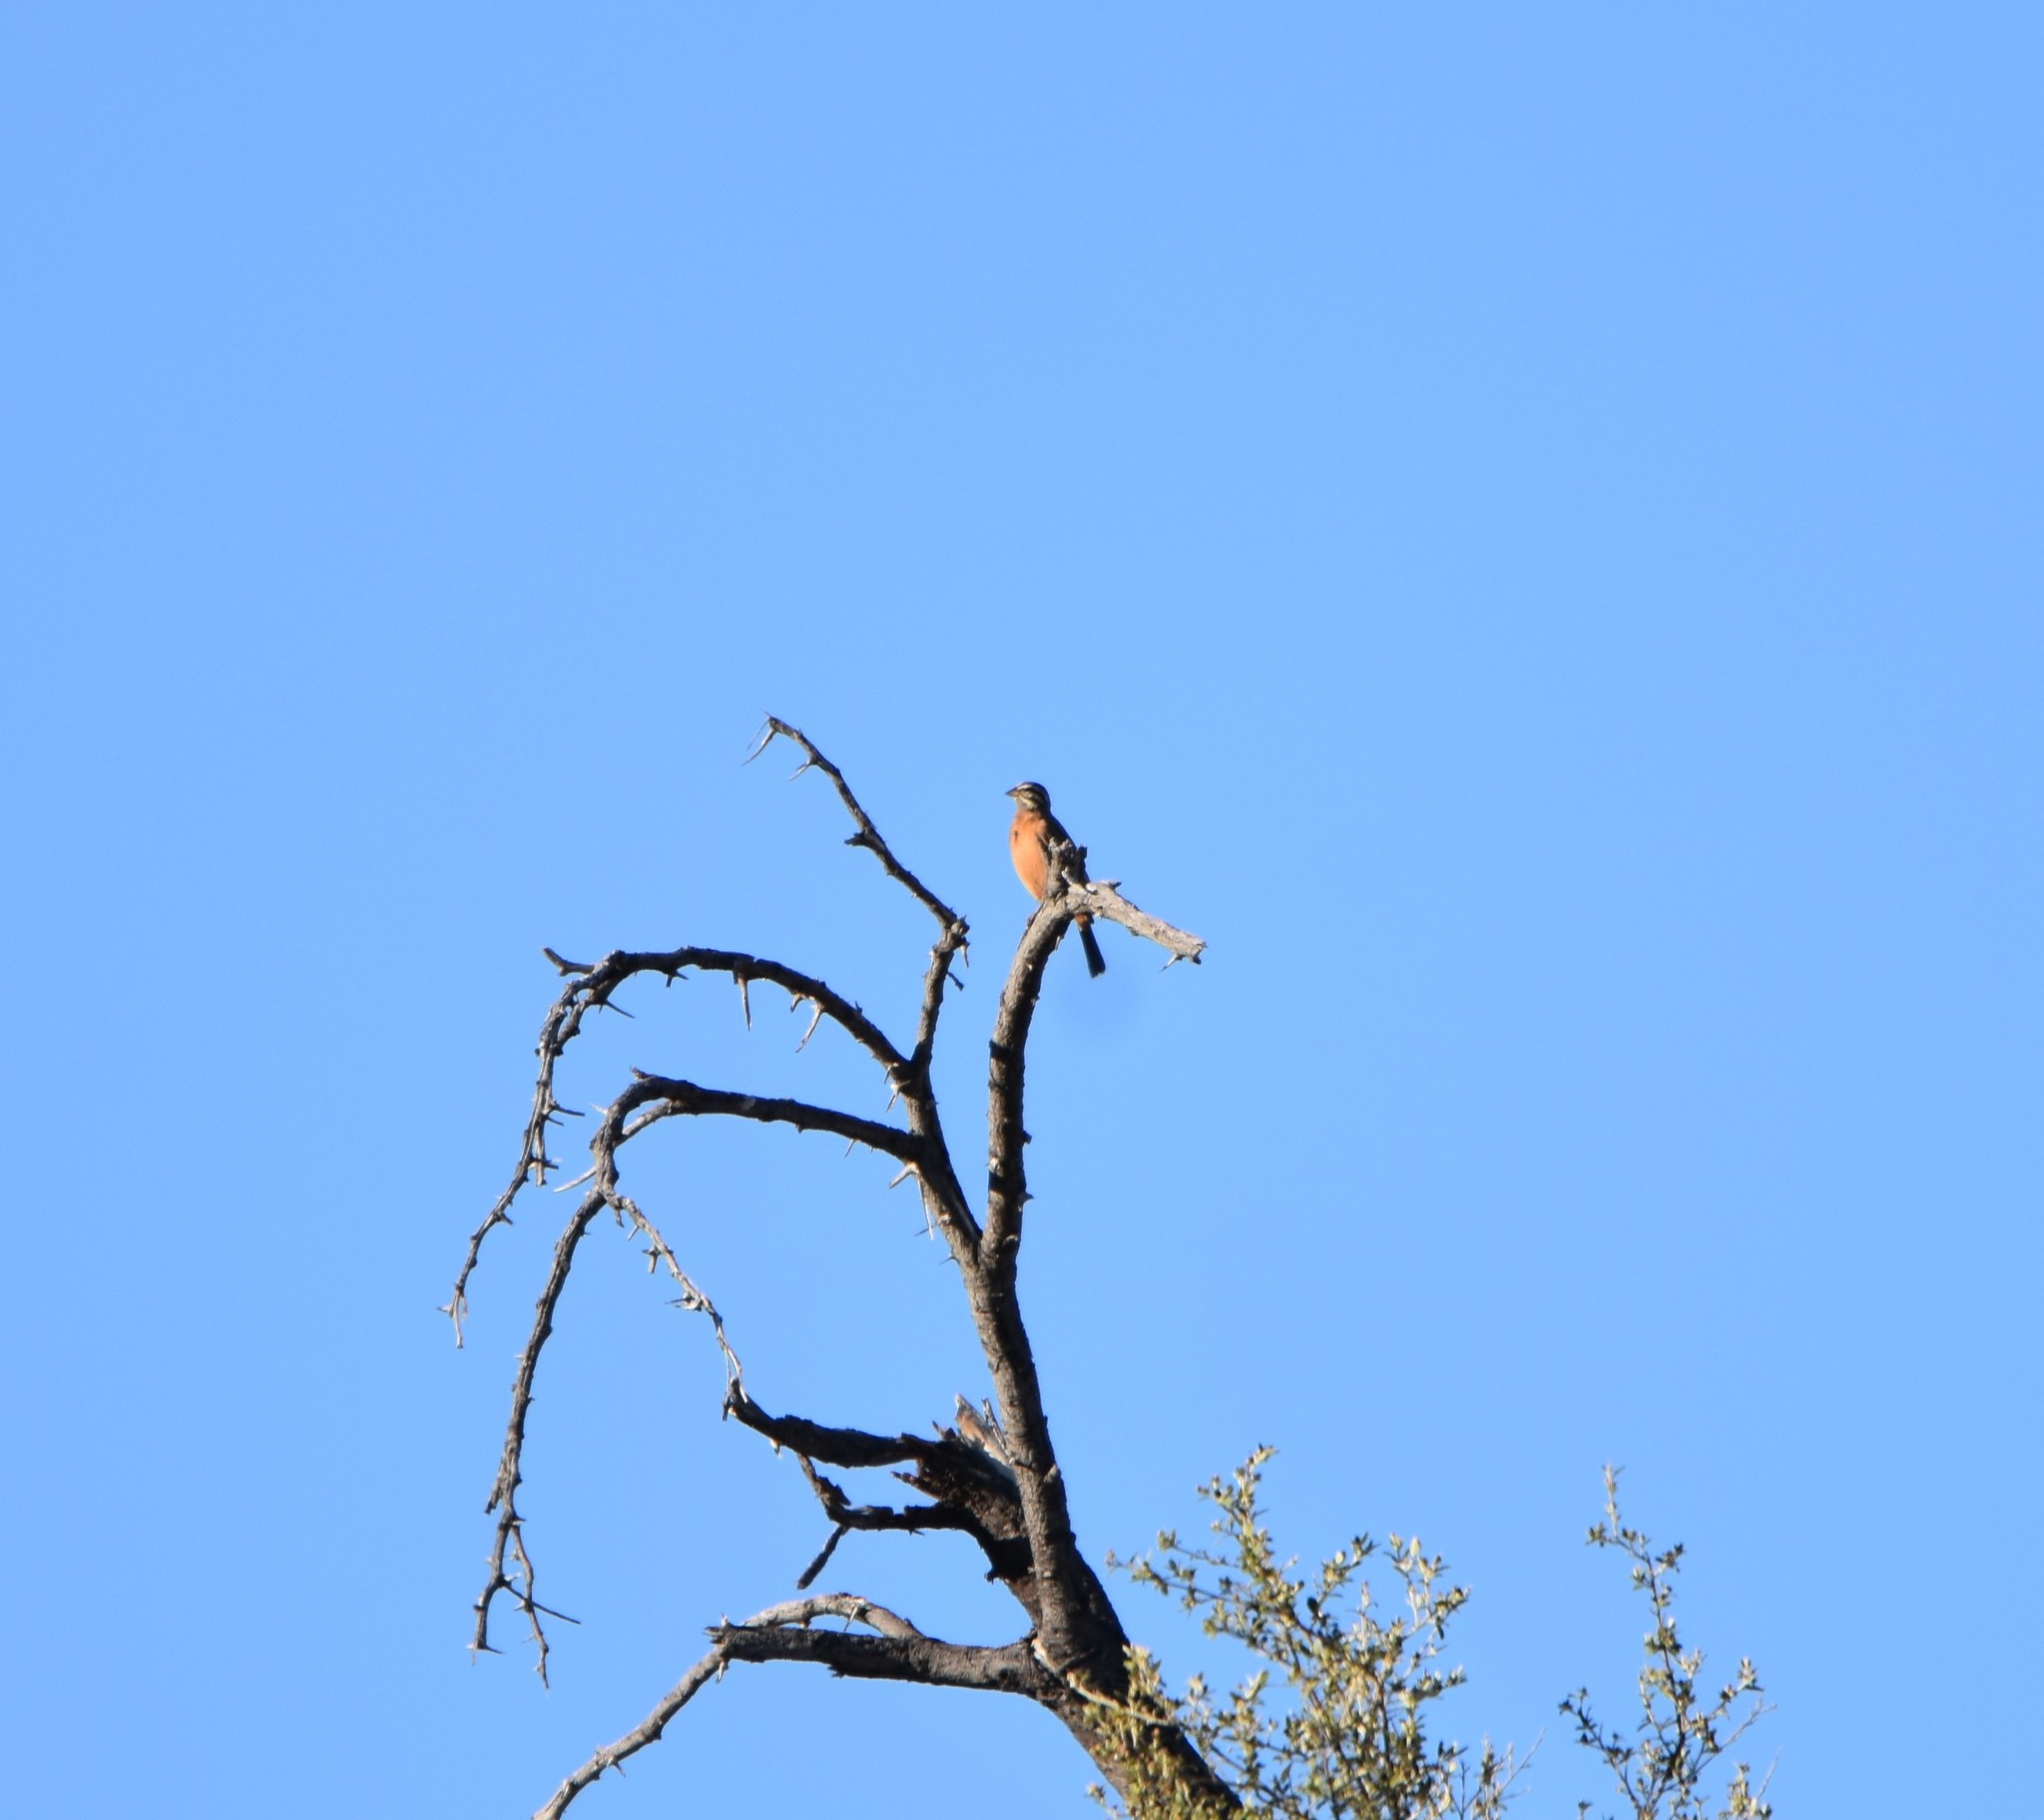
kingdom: Animalia
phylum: Chordata
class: Aves
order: Passeriformes
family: Emberizidae
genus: Emberiza
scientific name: Emberiza tahapisi
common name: Cinnamon-breasted bunting
